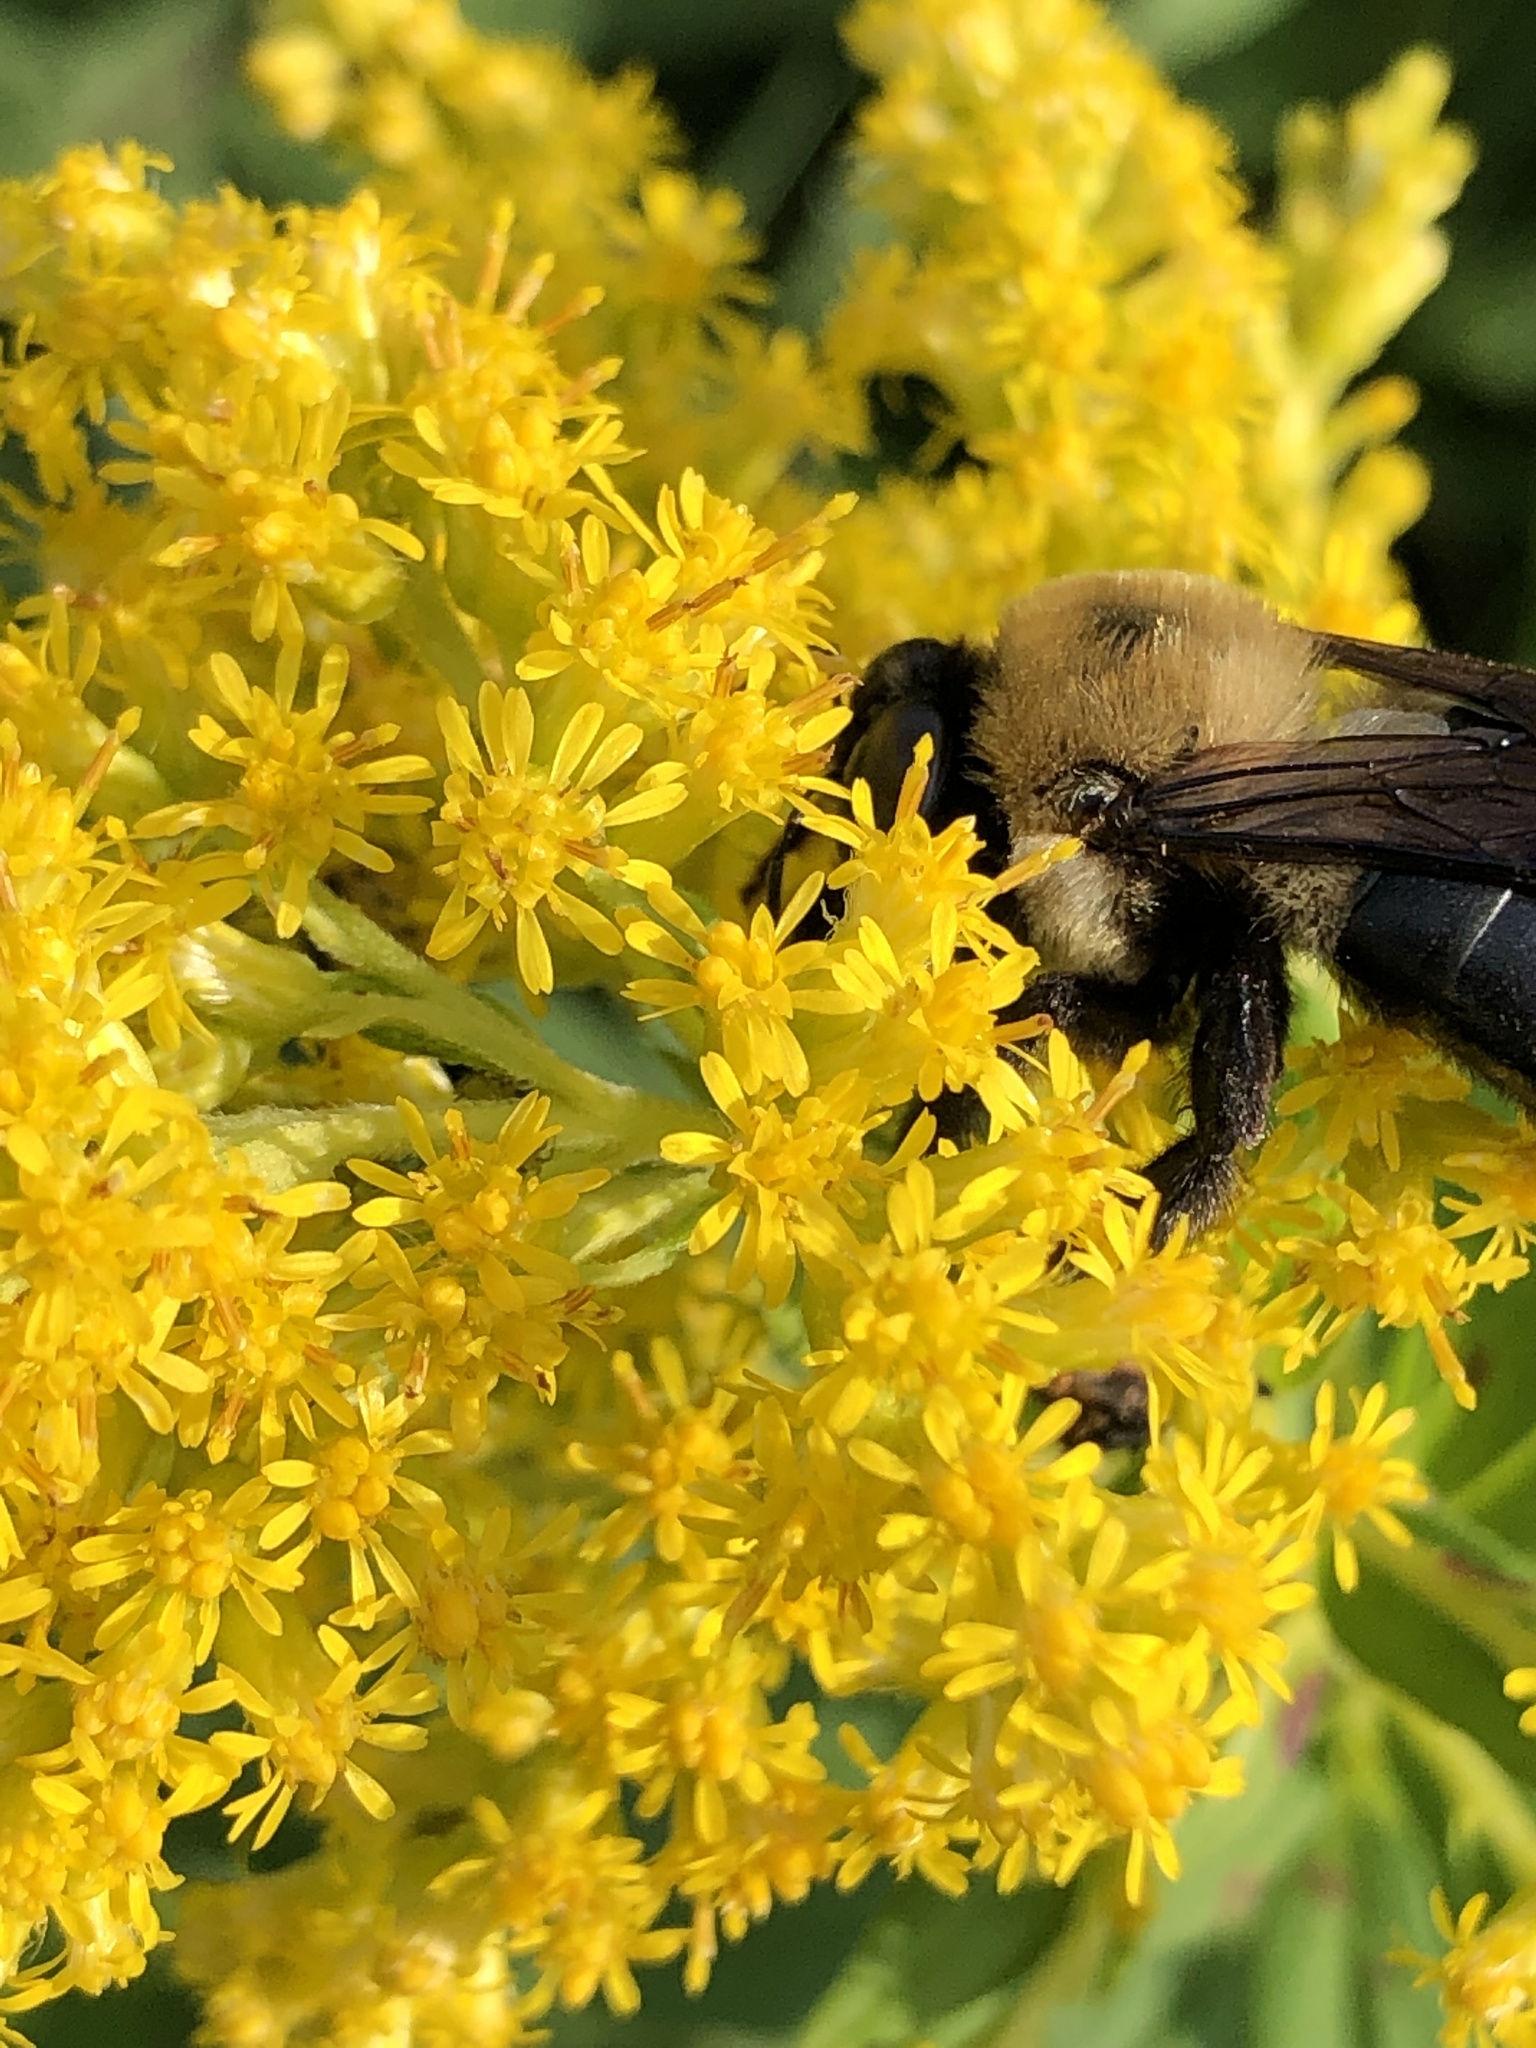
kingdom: Animalia
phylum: Arthropoda
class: Insecta
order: Hymenoptera
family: Apidae
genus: Xylocopa
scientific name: Xylocopa virginica
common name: Carpenter bee
